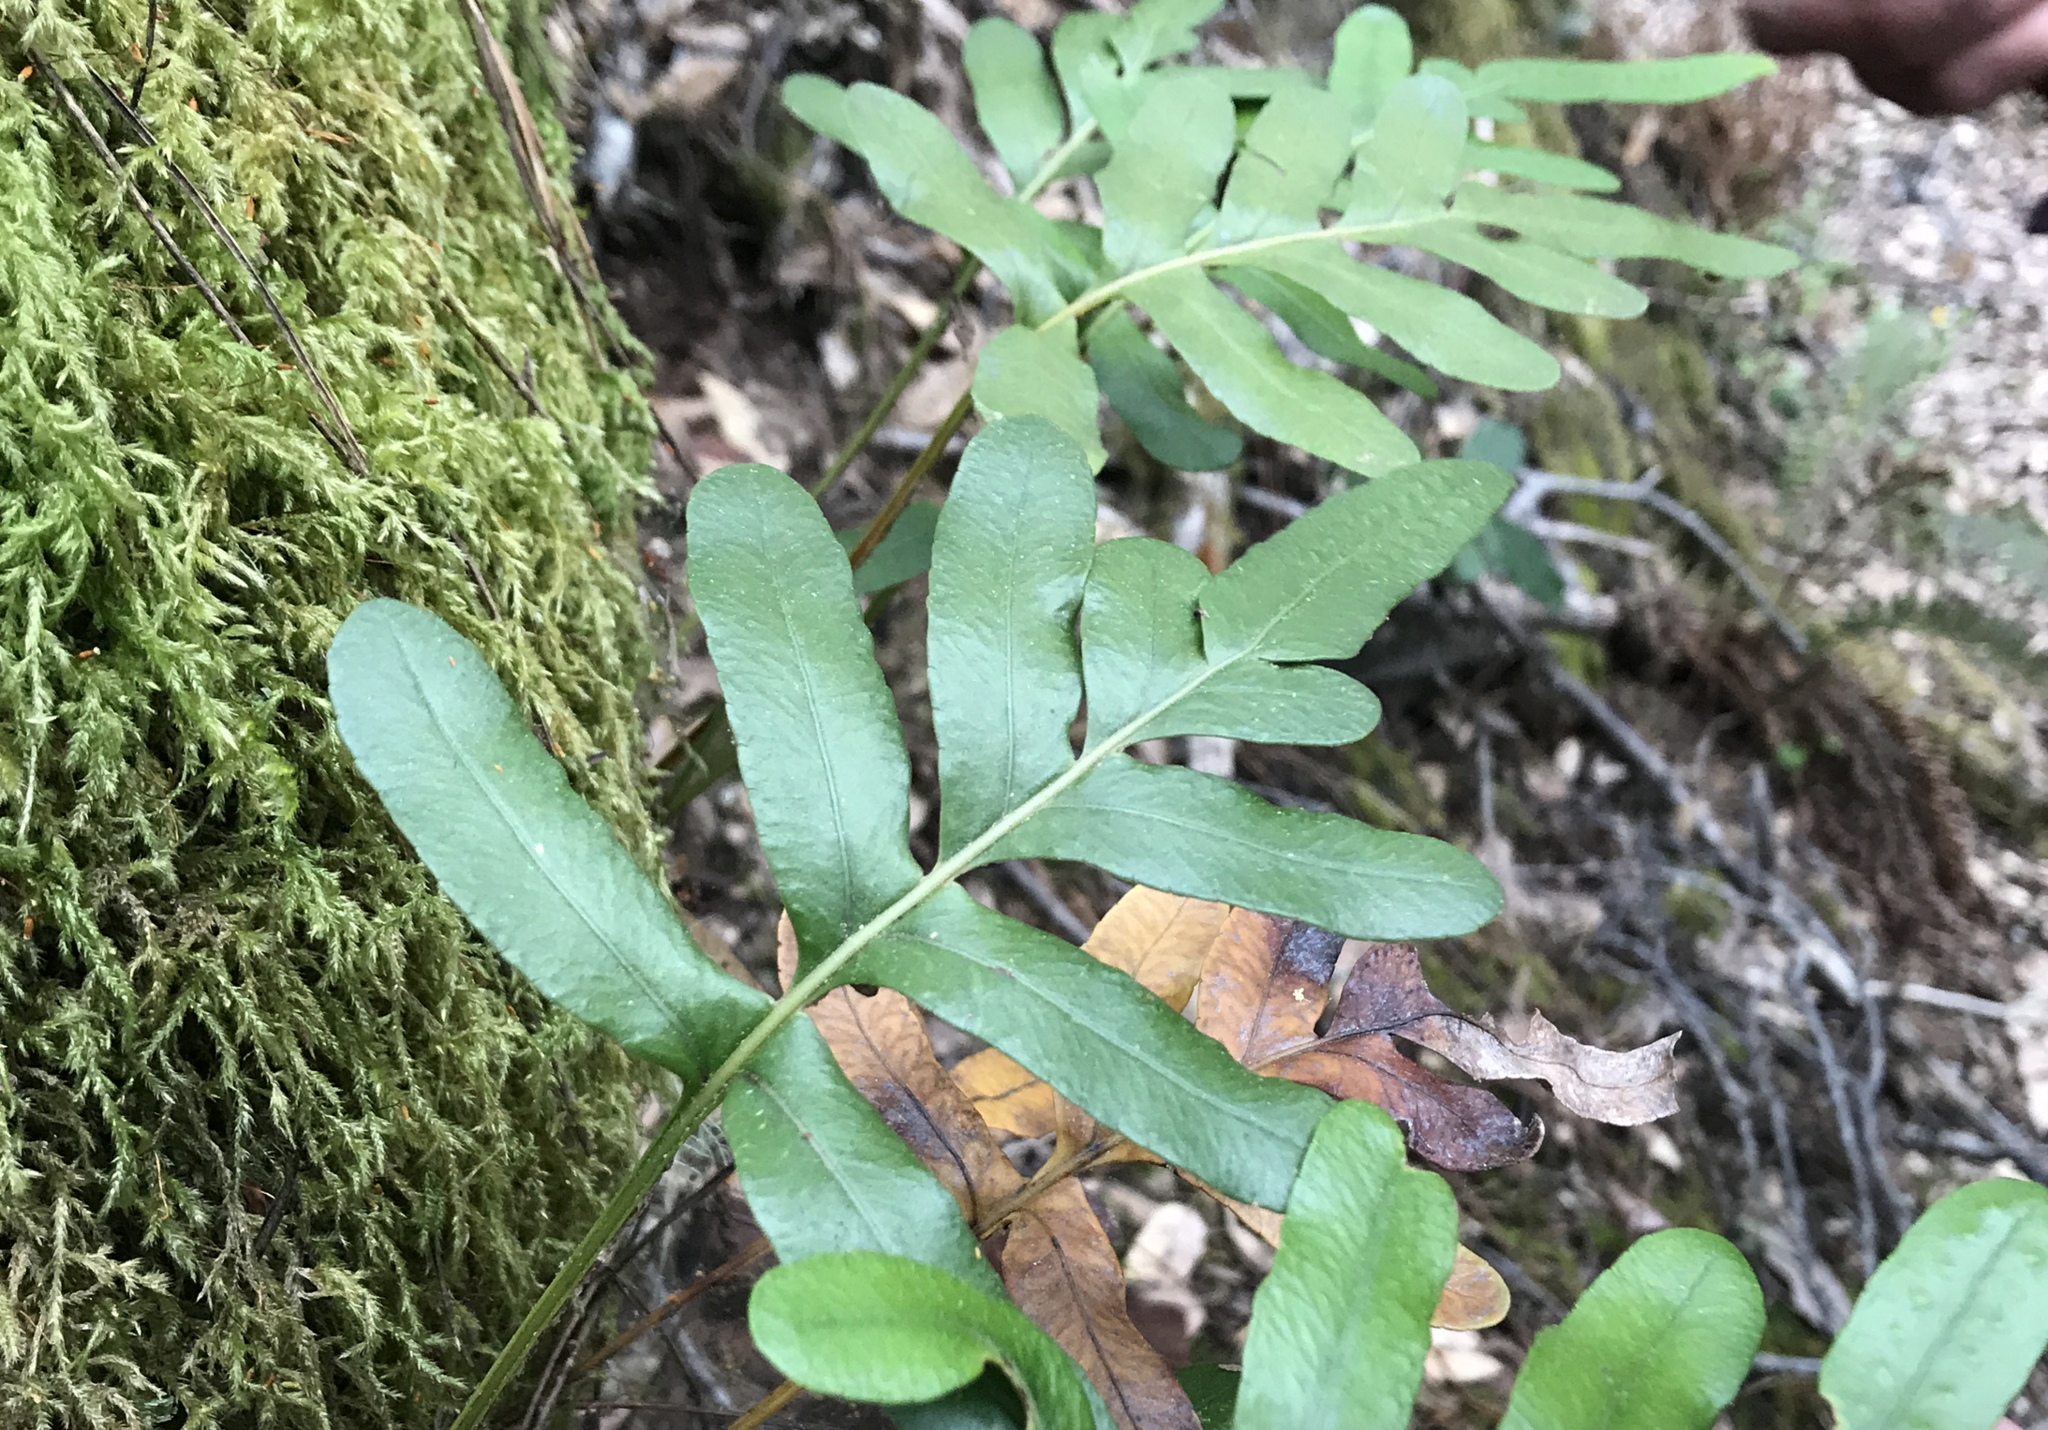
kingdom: Plantae
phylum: Tracheophyta
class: Polypodiopsida
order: Polypodiales
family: Polypodiaceae
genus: Polypodium
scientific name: Polypodium scouleri
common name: Scouler's polypody
